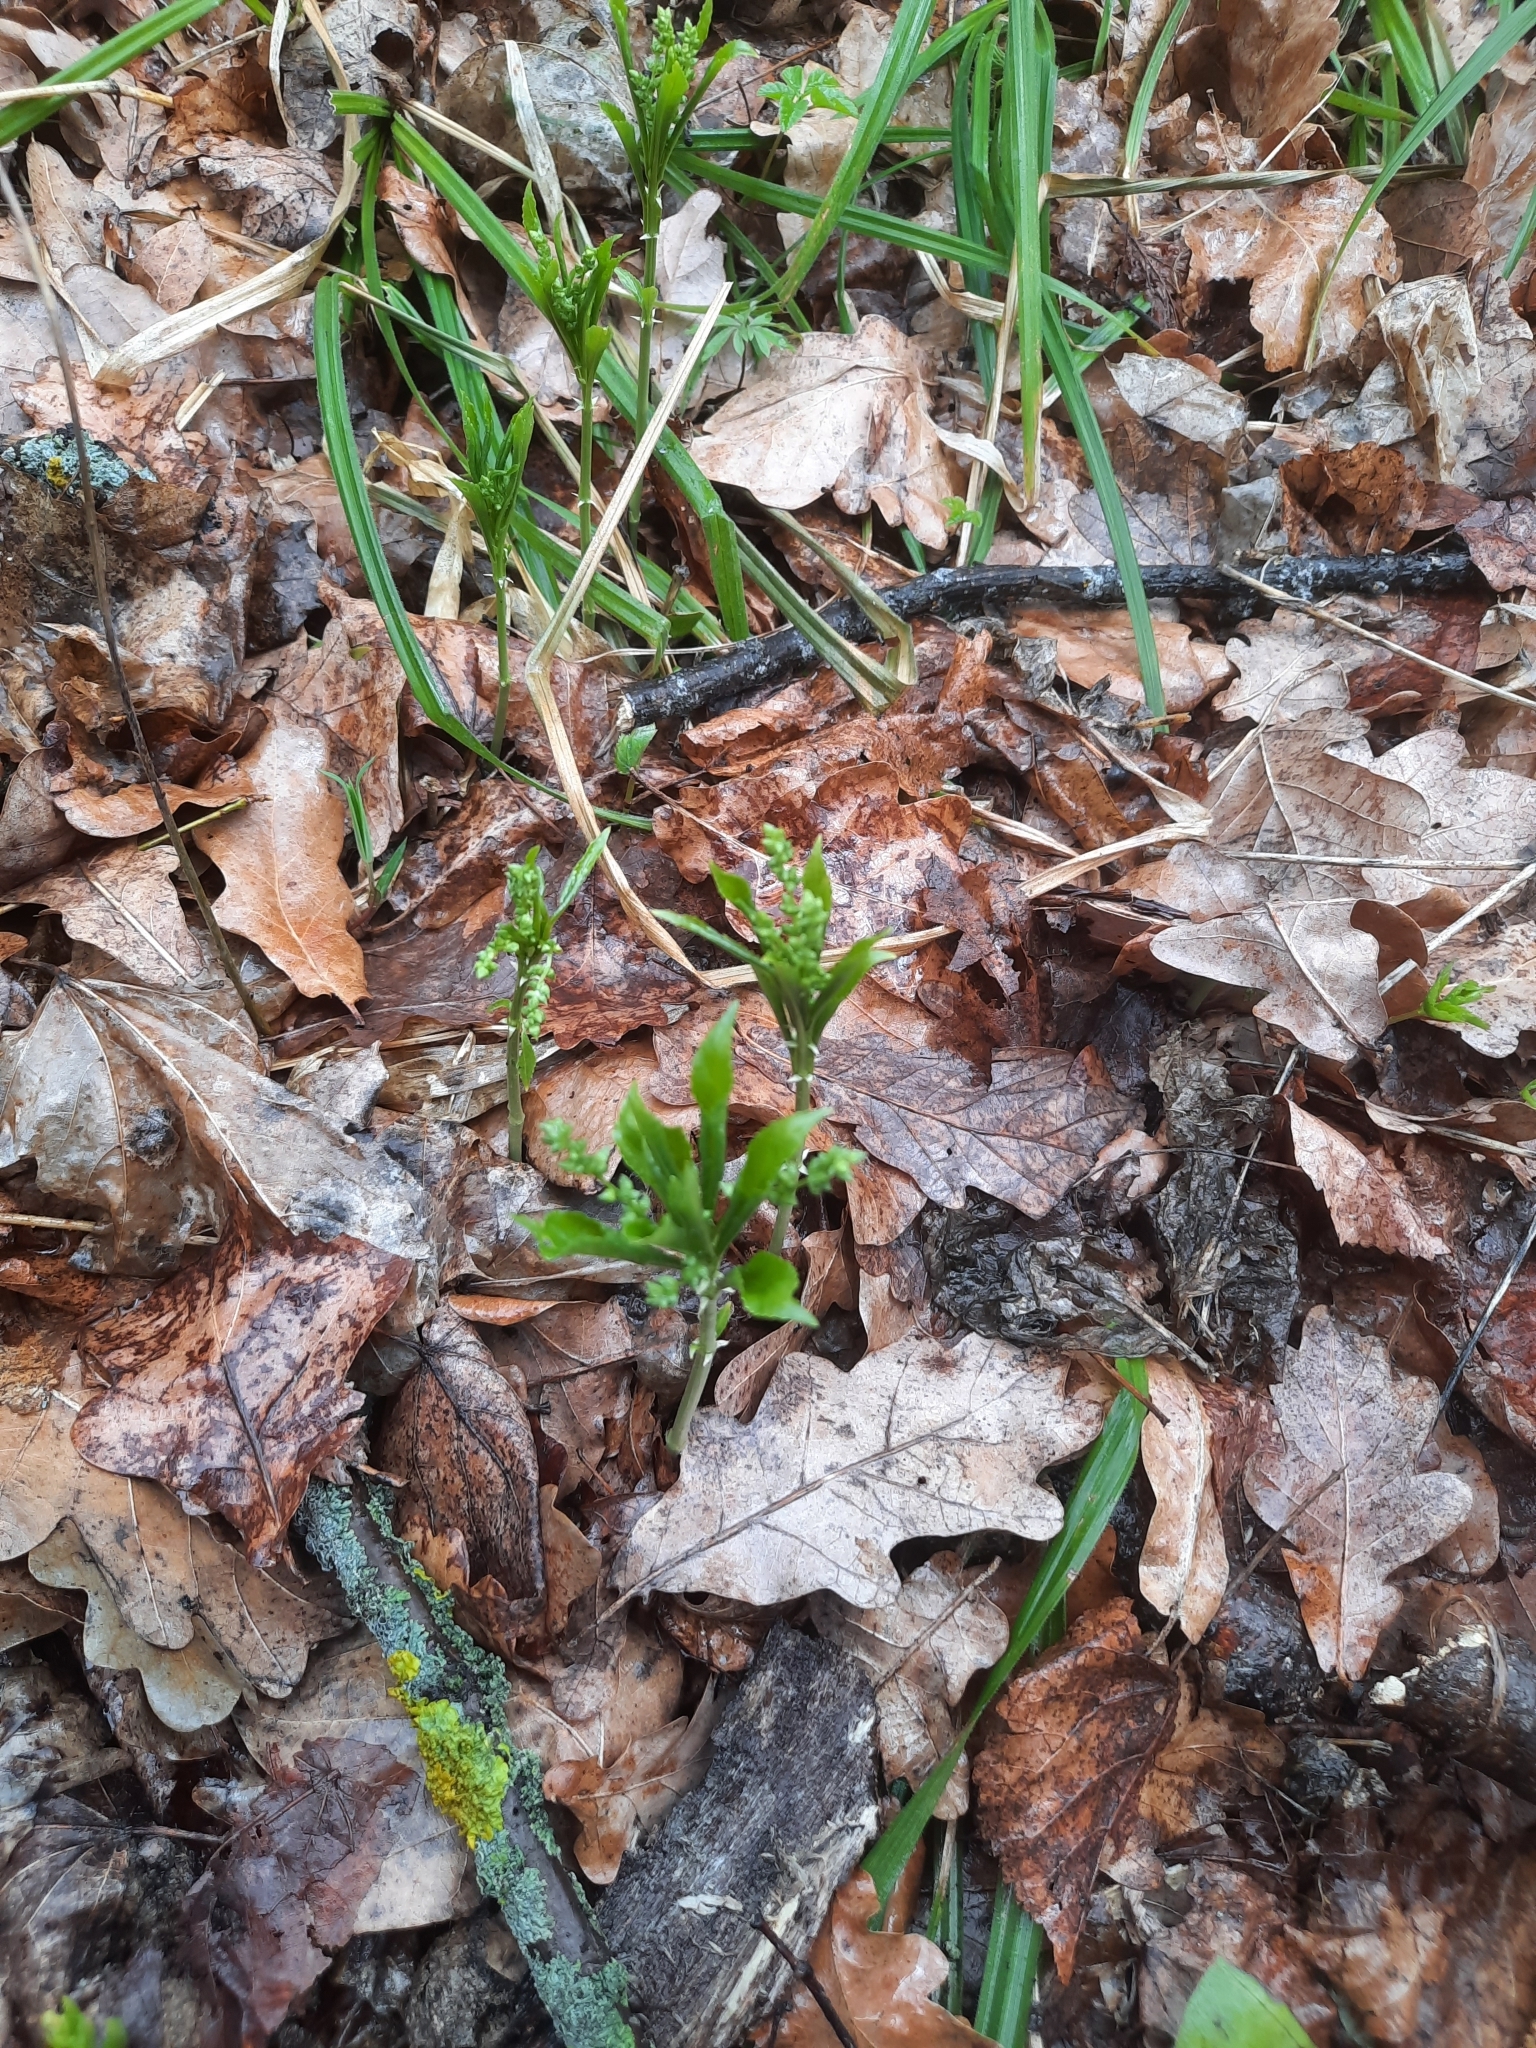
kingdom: Plantae
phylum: Tracheophyta
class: Magnoliopsida
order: Malpighiales
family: Euphorbiaceae
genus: Mercurialis
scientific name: Mercurialis perennis
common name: Dog mercury
